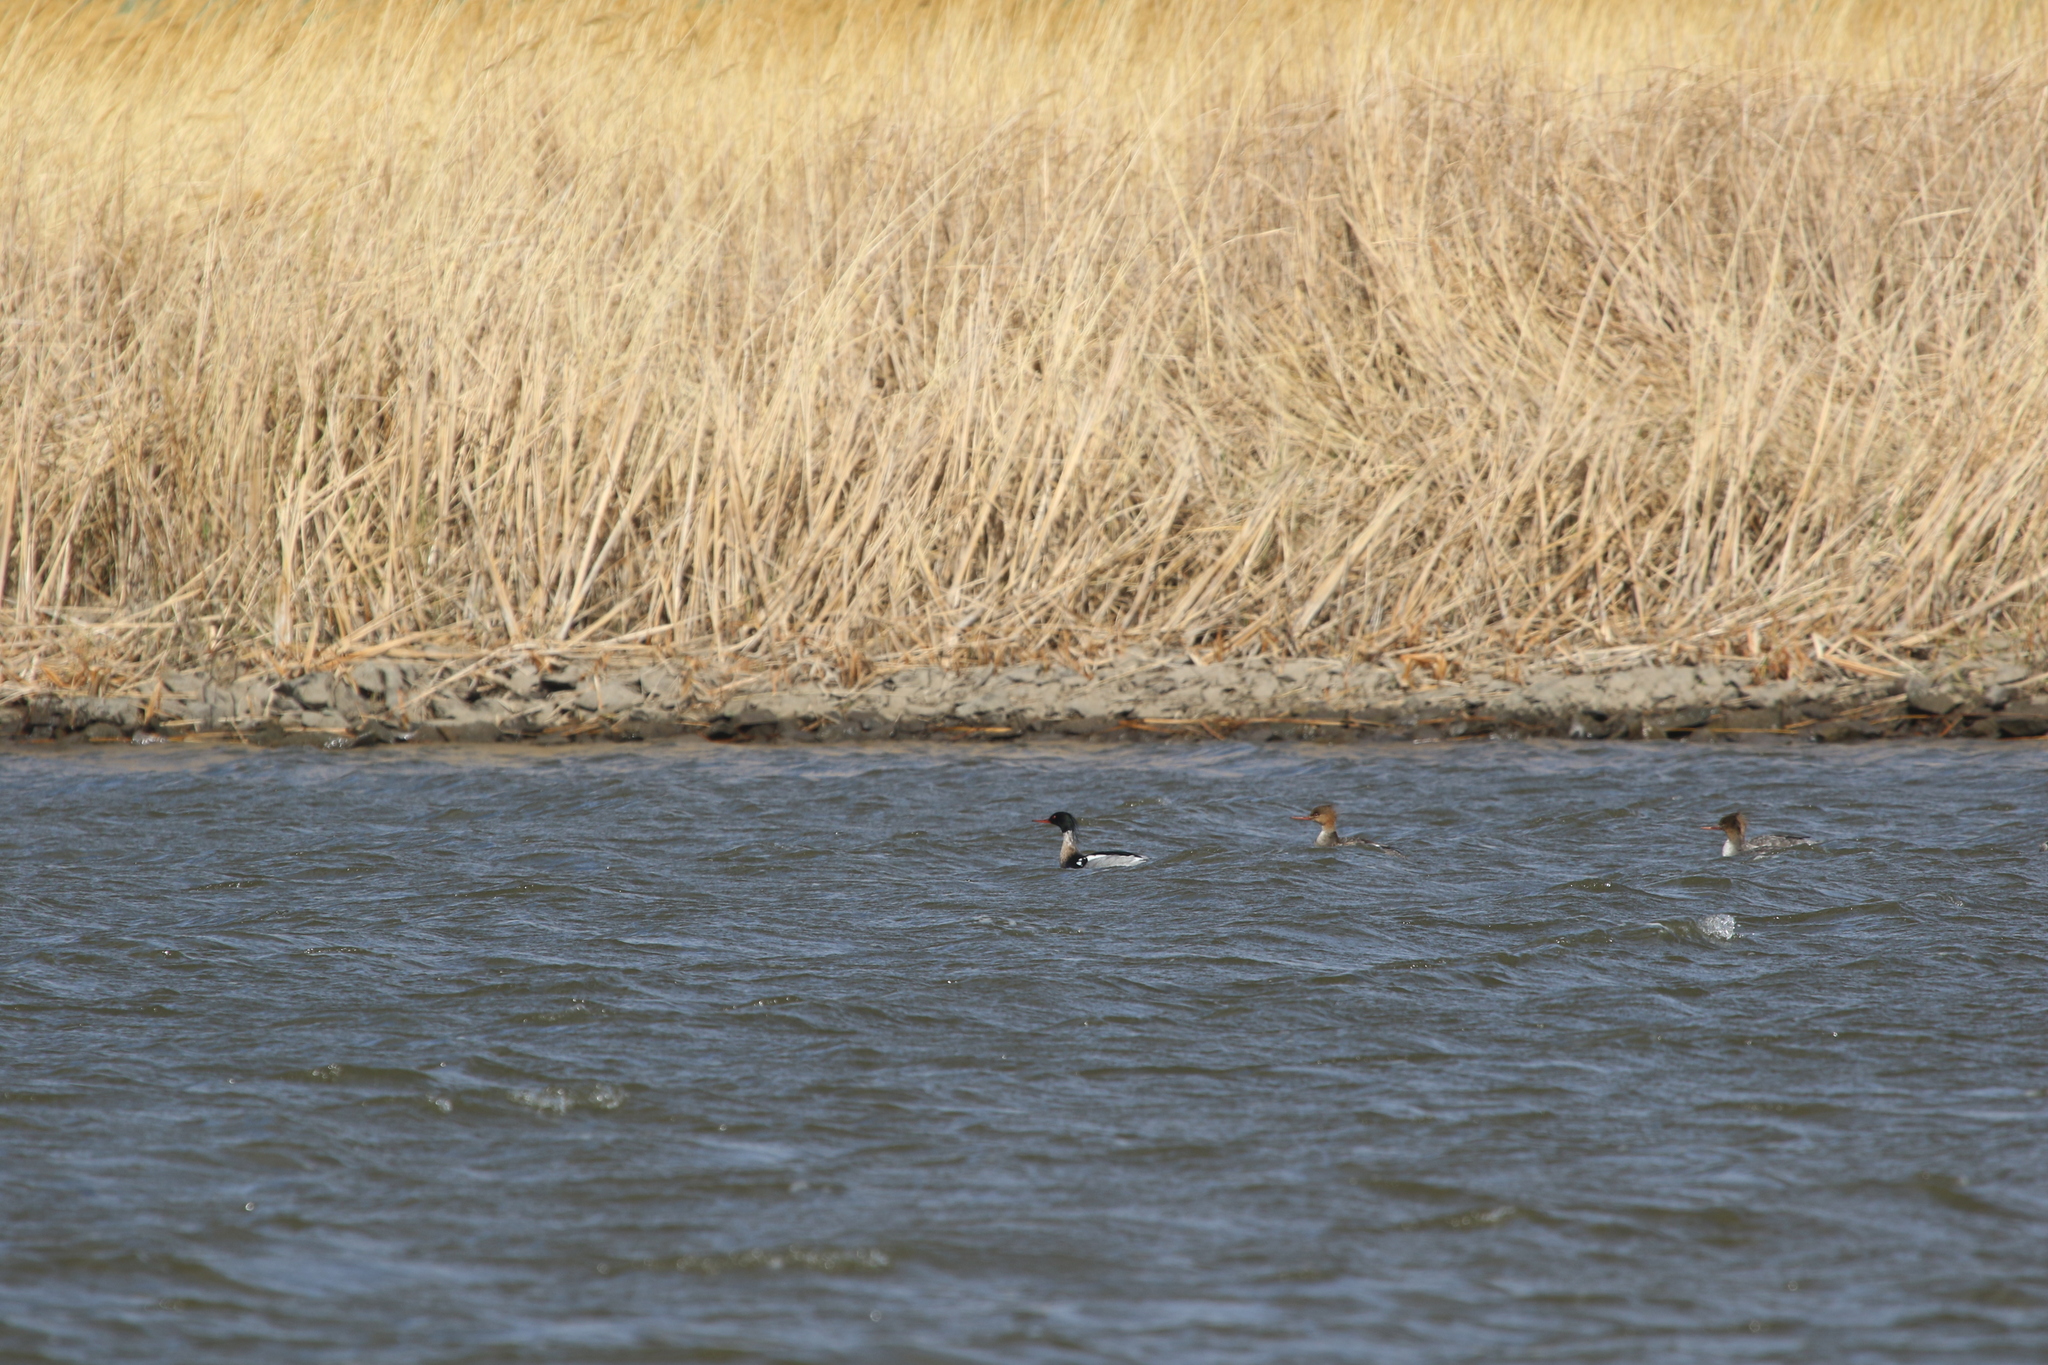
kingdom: Animalia
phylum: Chordata
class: Aves
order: Anseriformes
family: Anatidae
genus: Mergus
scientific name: Mergus serrator
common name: Red-breasted merganser
